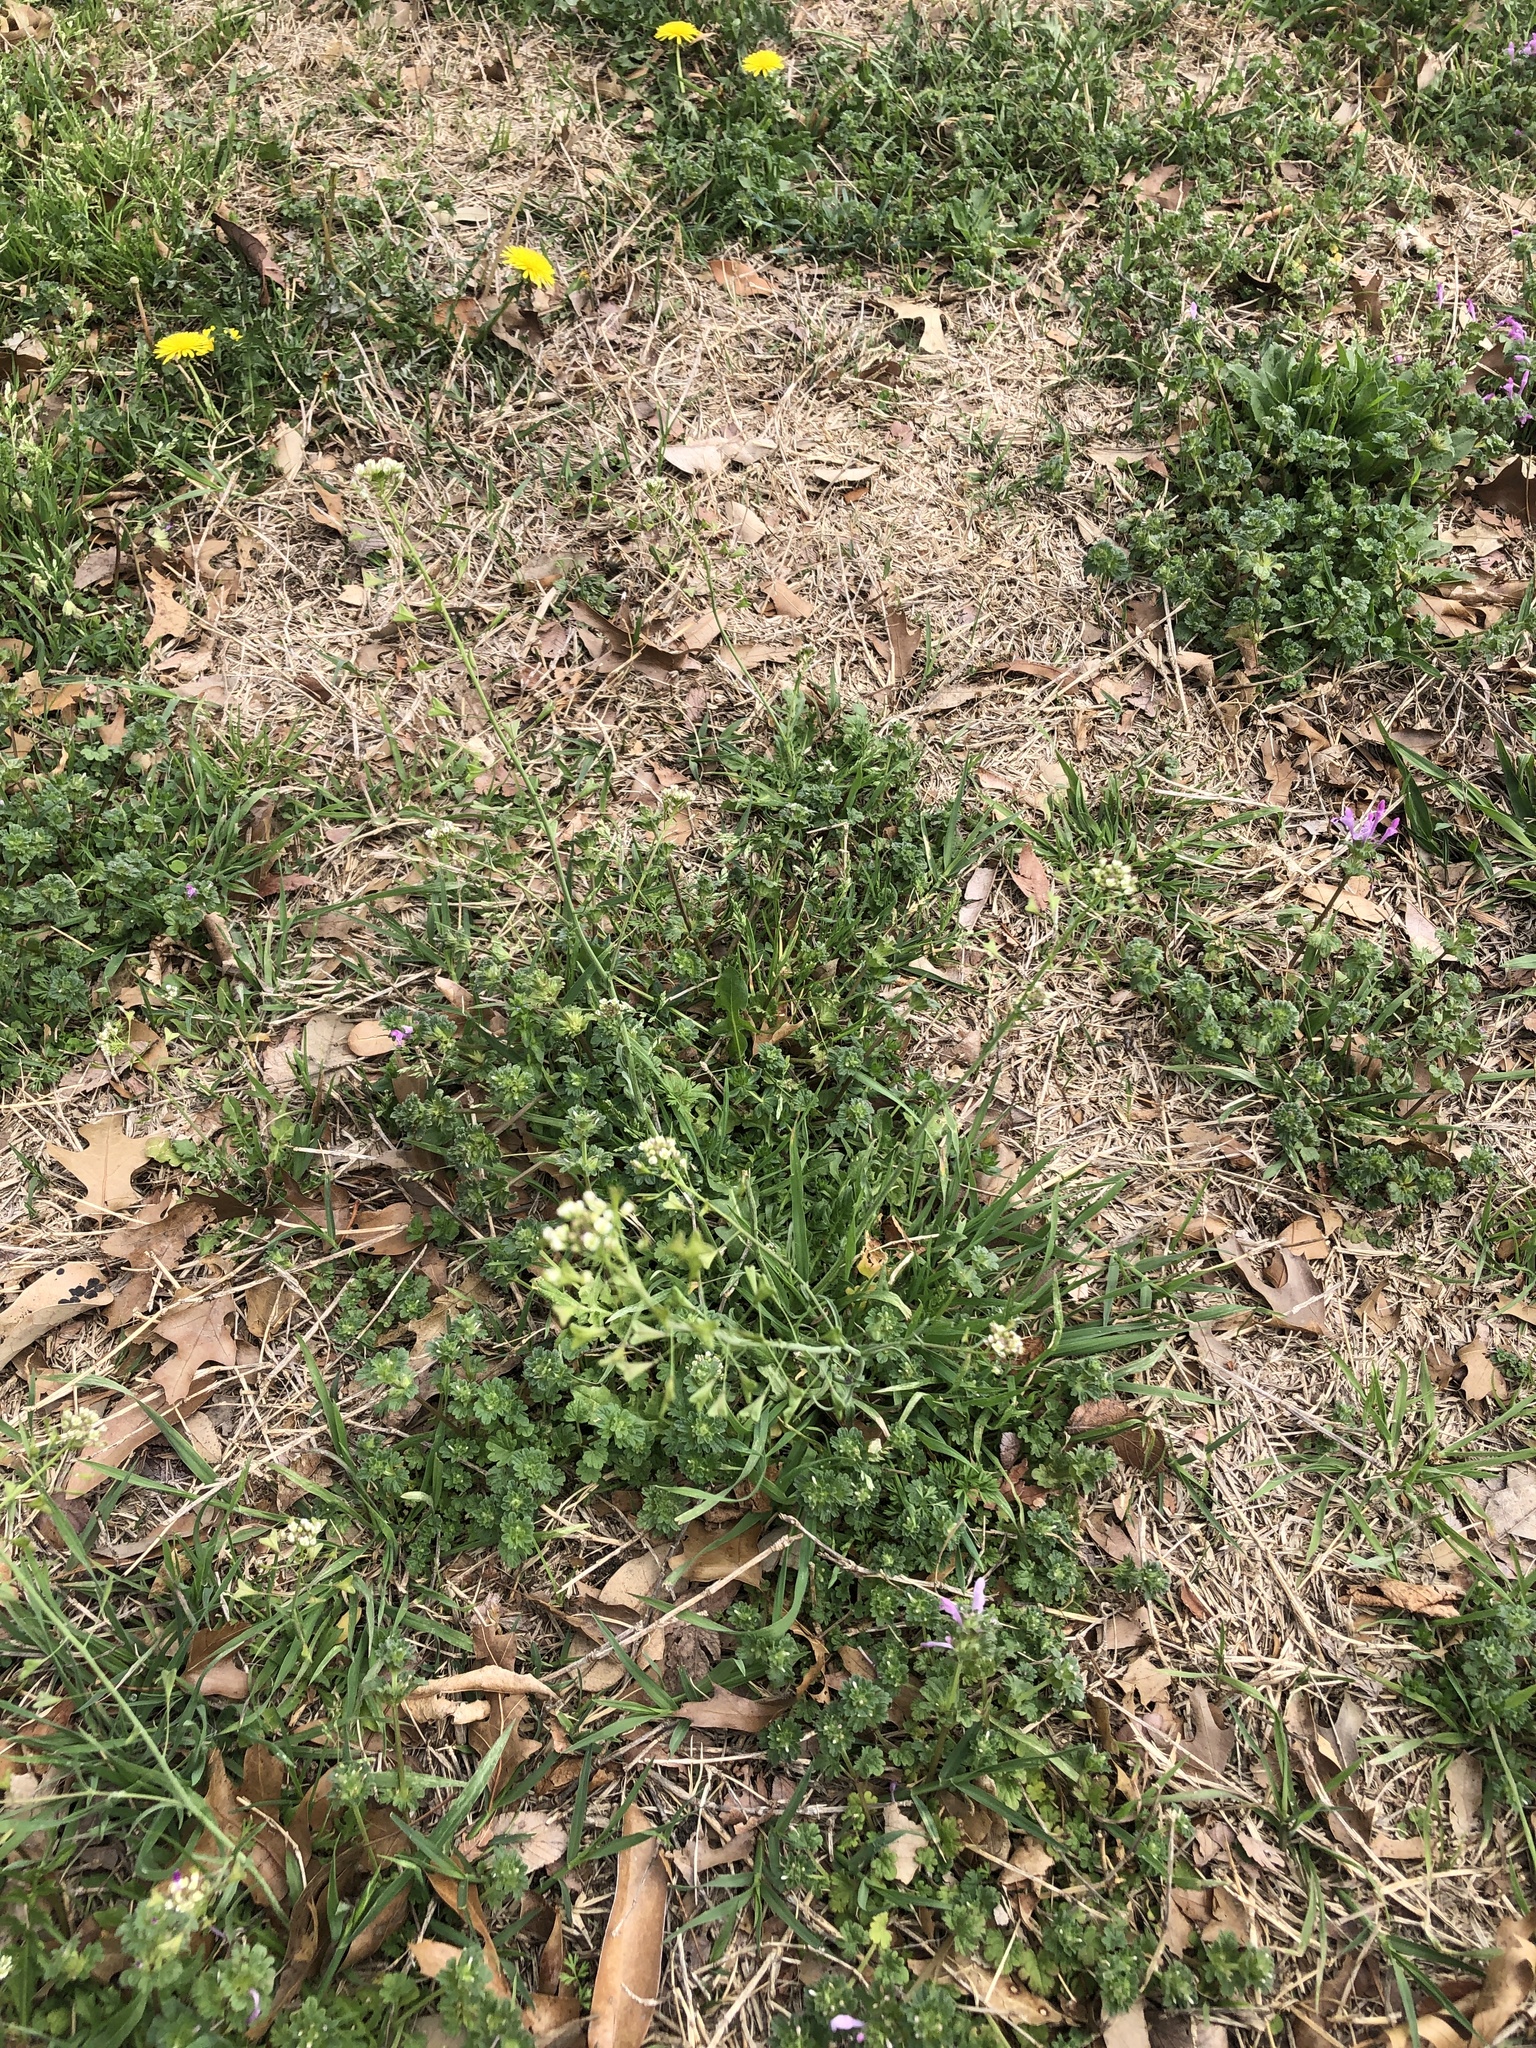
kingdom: Plantae
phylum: Tracheophyta
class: Magnoliopsida
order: Brassicales
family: Brassicaceae
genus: Capsella
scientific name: Capsella bursa-pastoris
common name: Shepherd's purse
